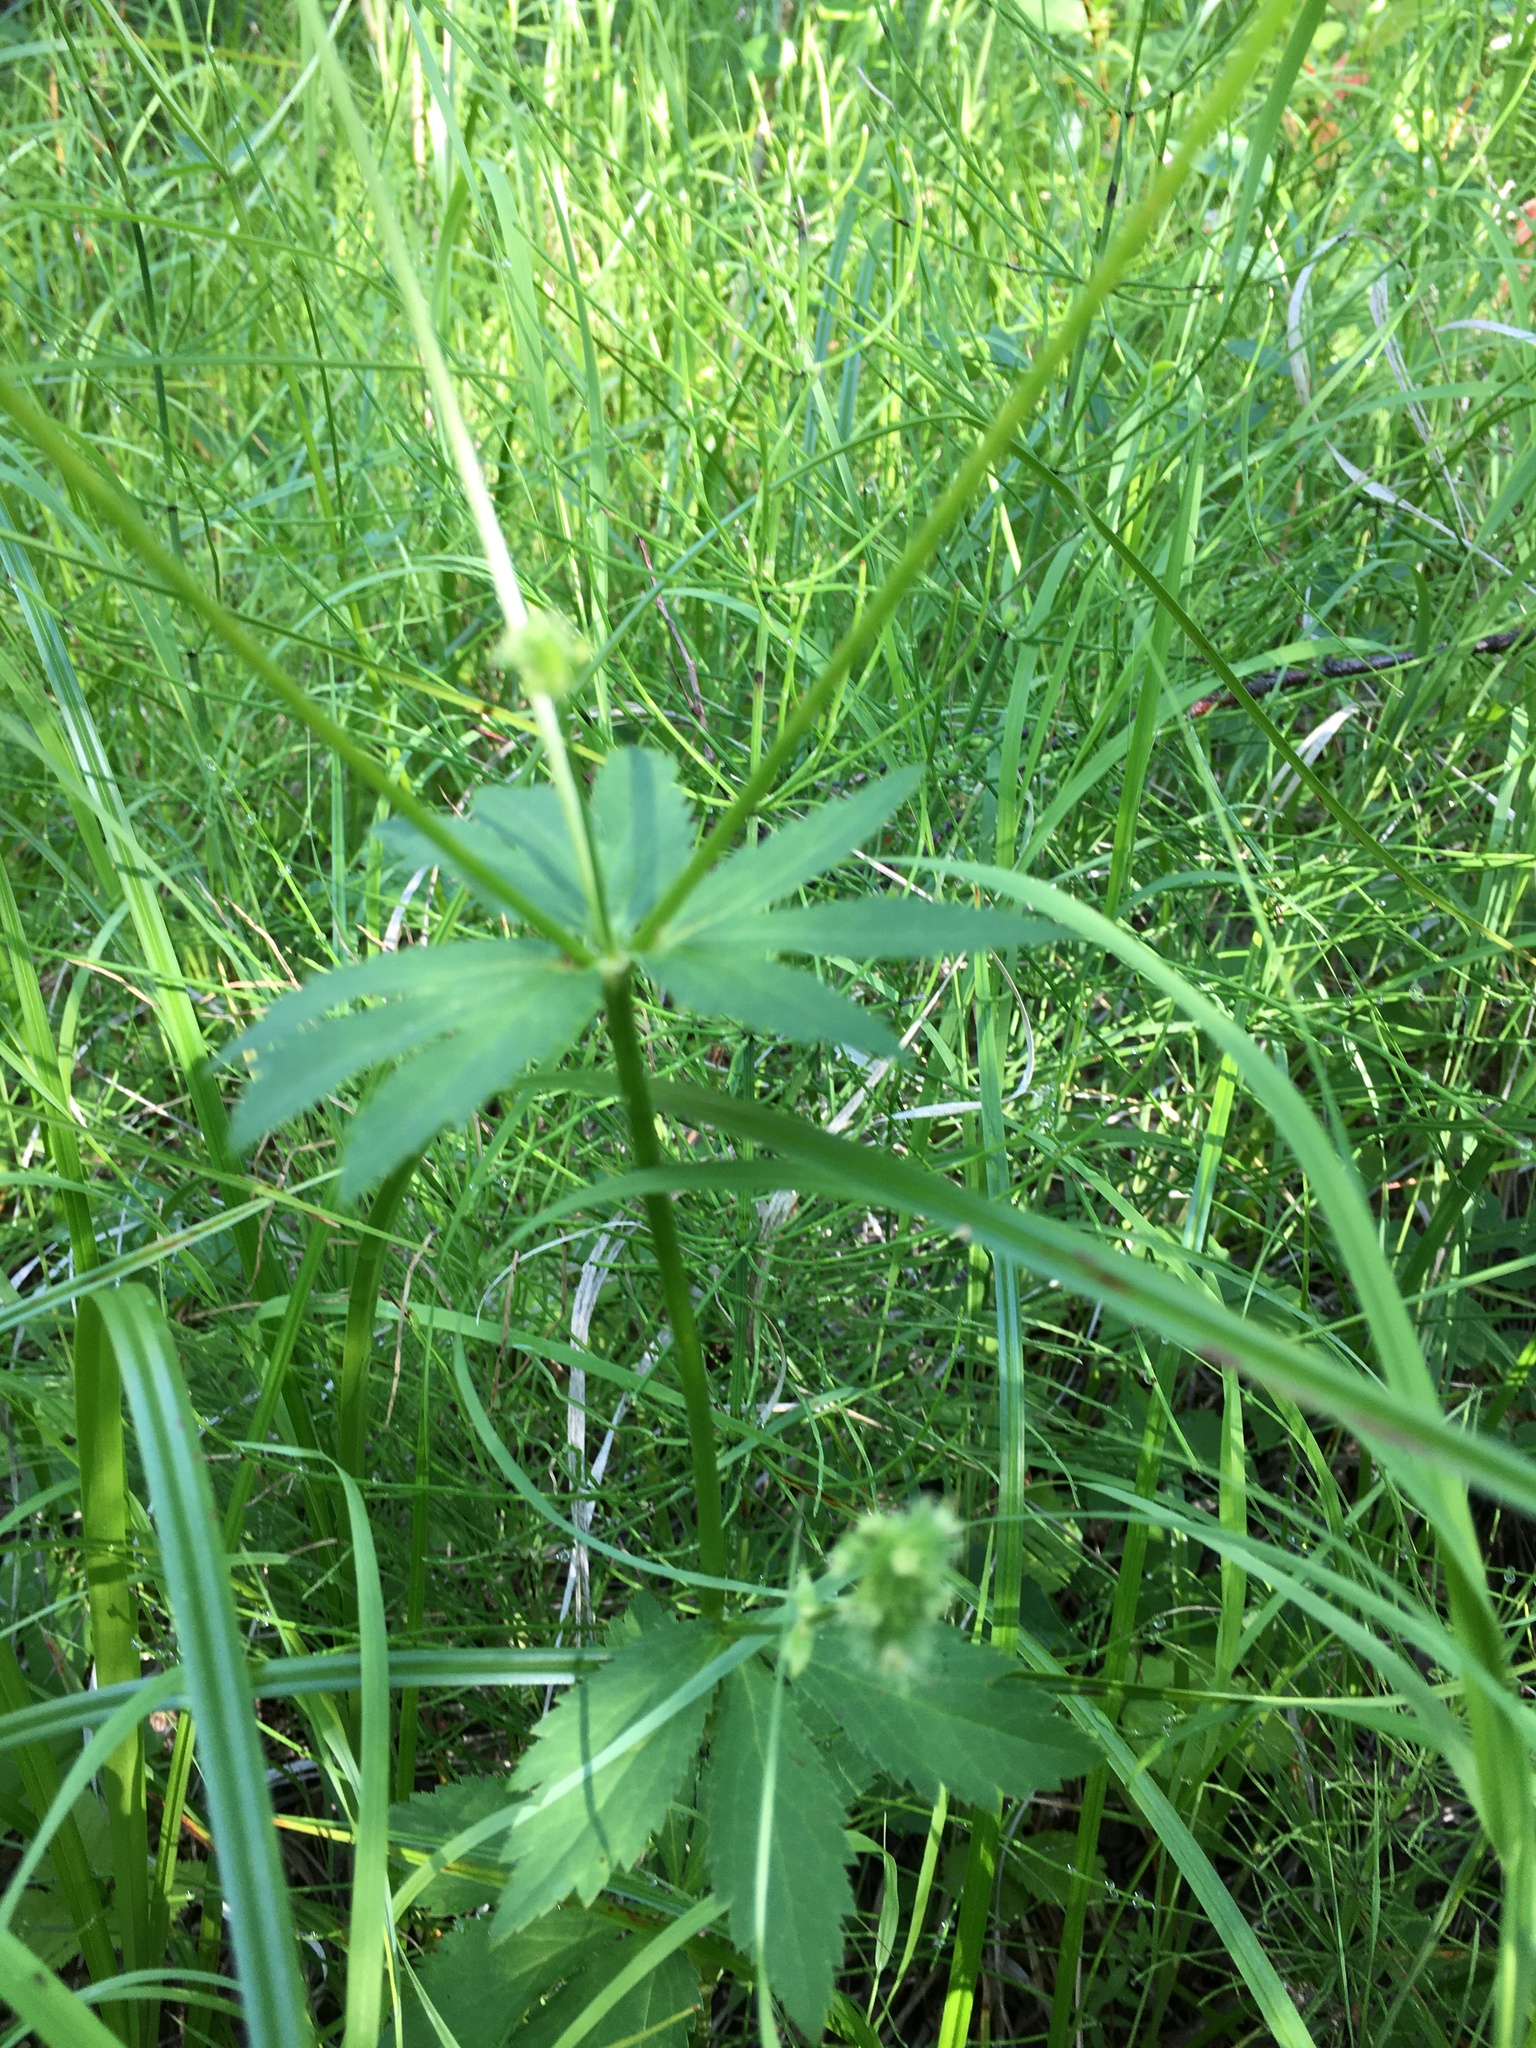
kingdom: Plantae
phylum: Tracheophyta
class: Magnoliopsida
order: Apiales
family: Apiaceae
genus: Sanicula
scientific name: Sanicula marilandica
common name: Black snakeroot
